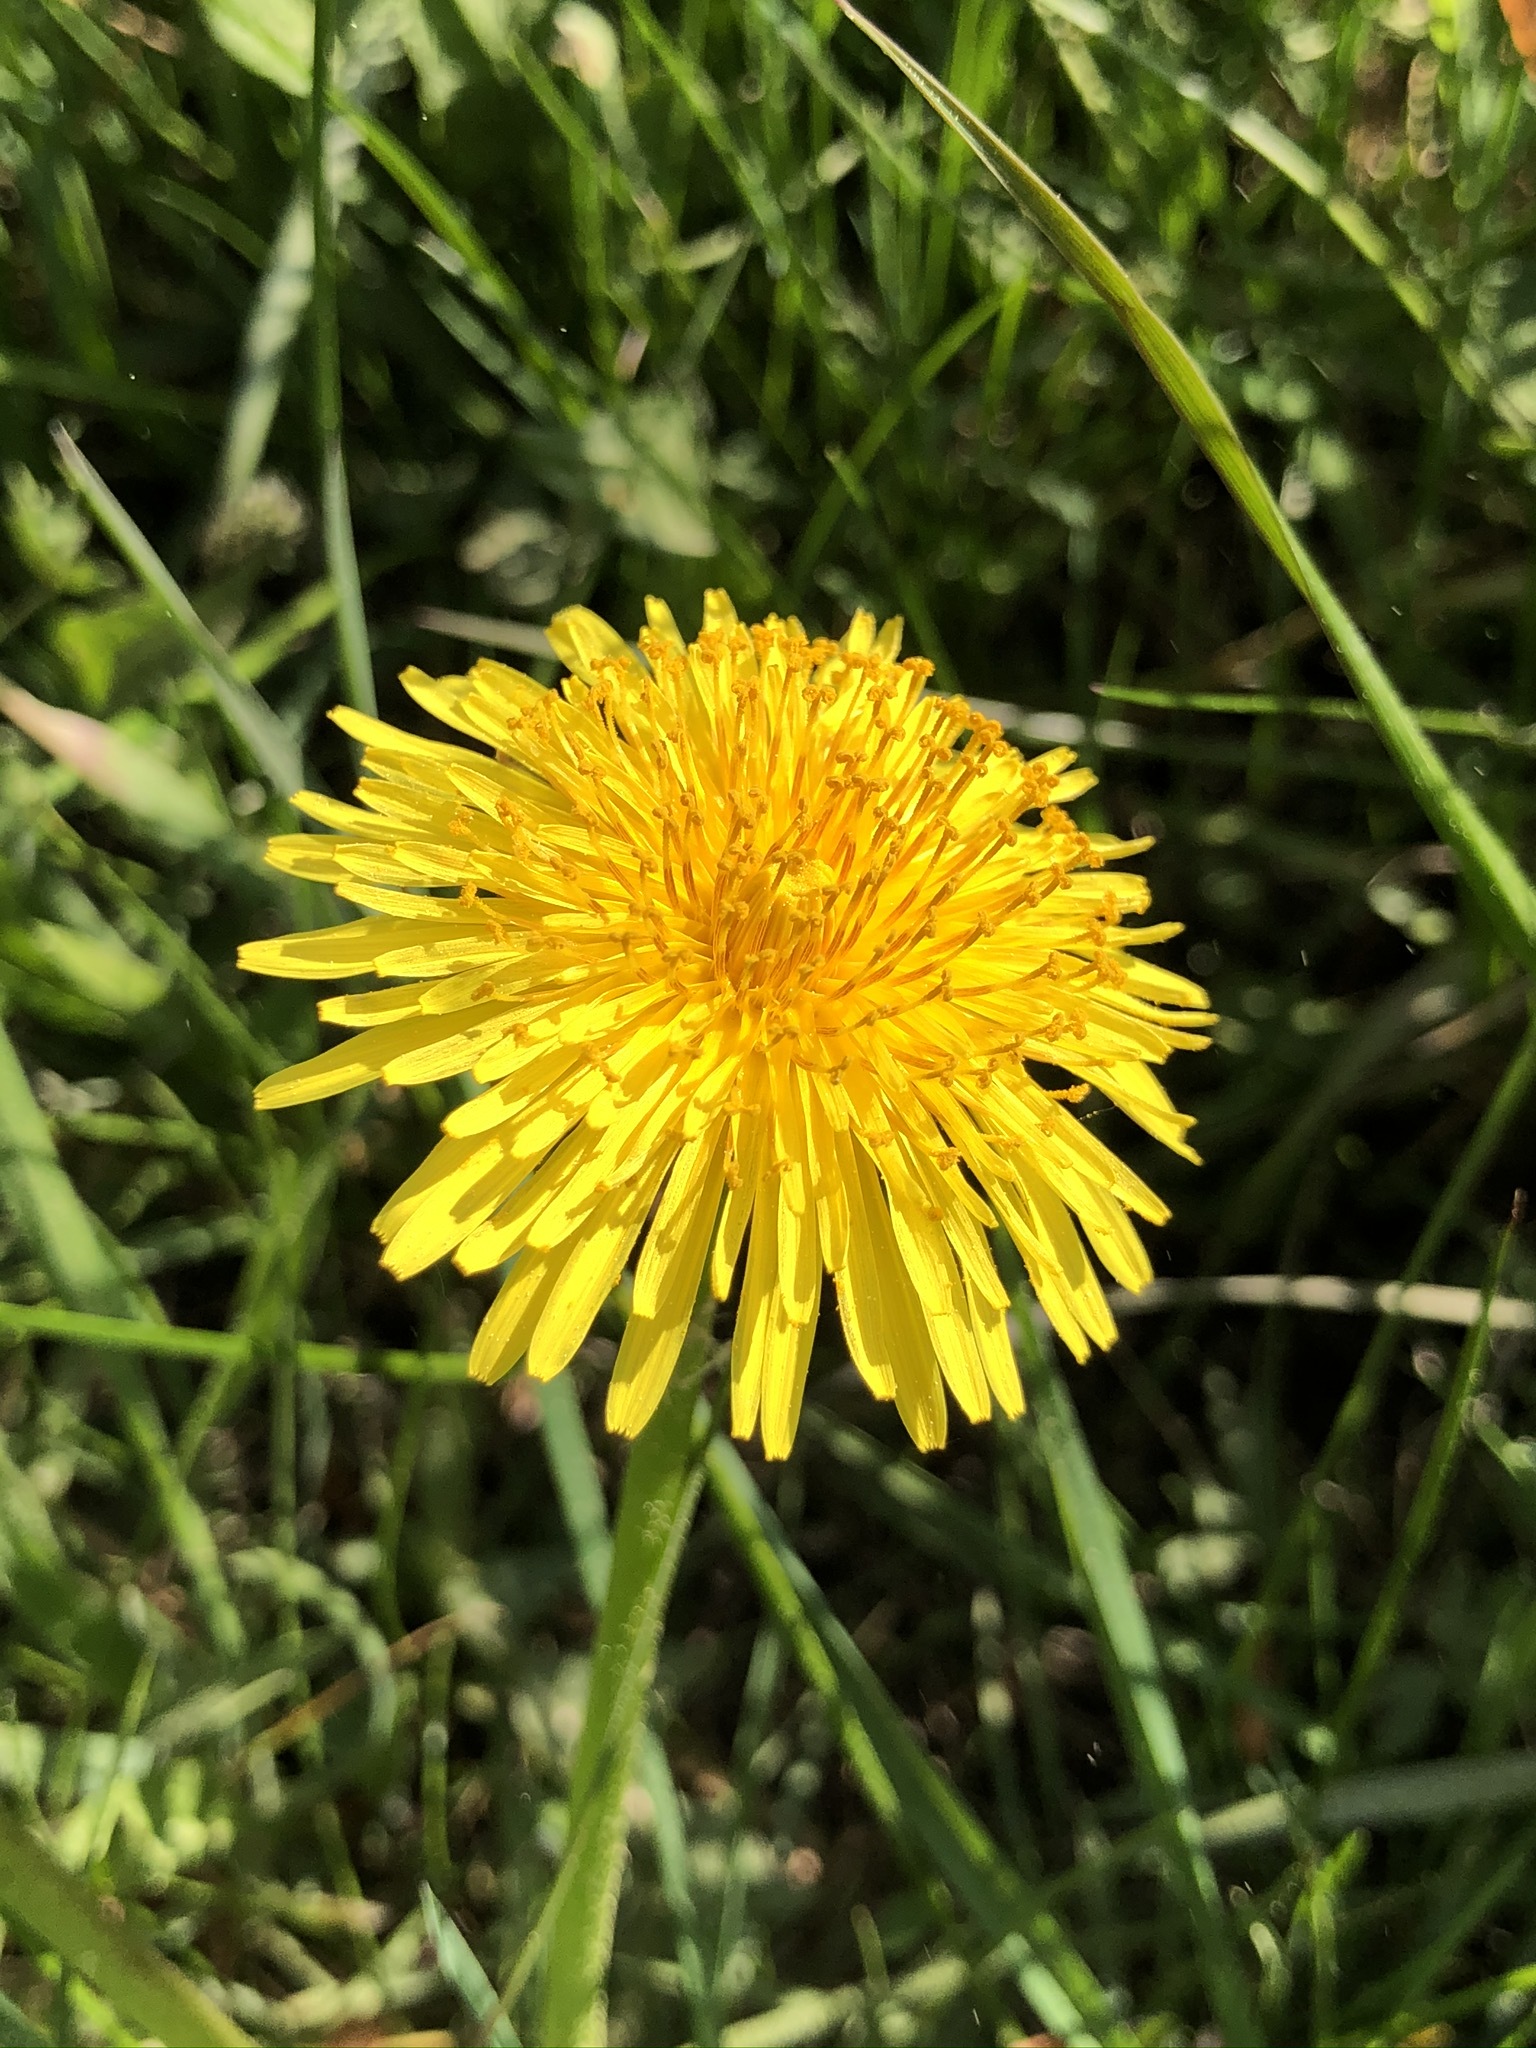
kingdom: Plantae
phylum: Tracheophyta
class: Magnoliopsida
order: Asterales
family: Asteraceae
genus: Taraxacum
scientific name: Taraxacum officinale
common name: Common dandelion
